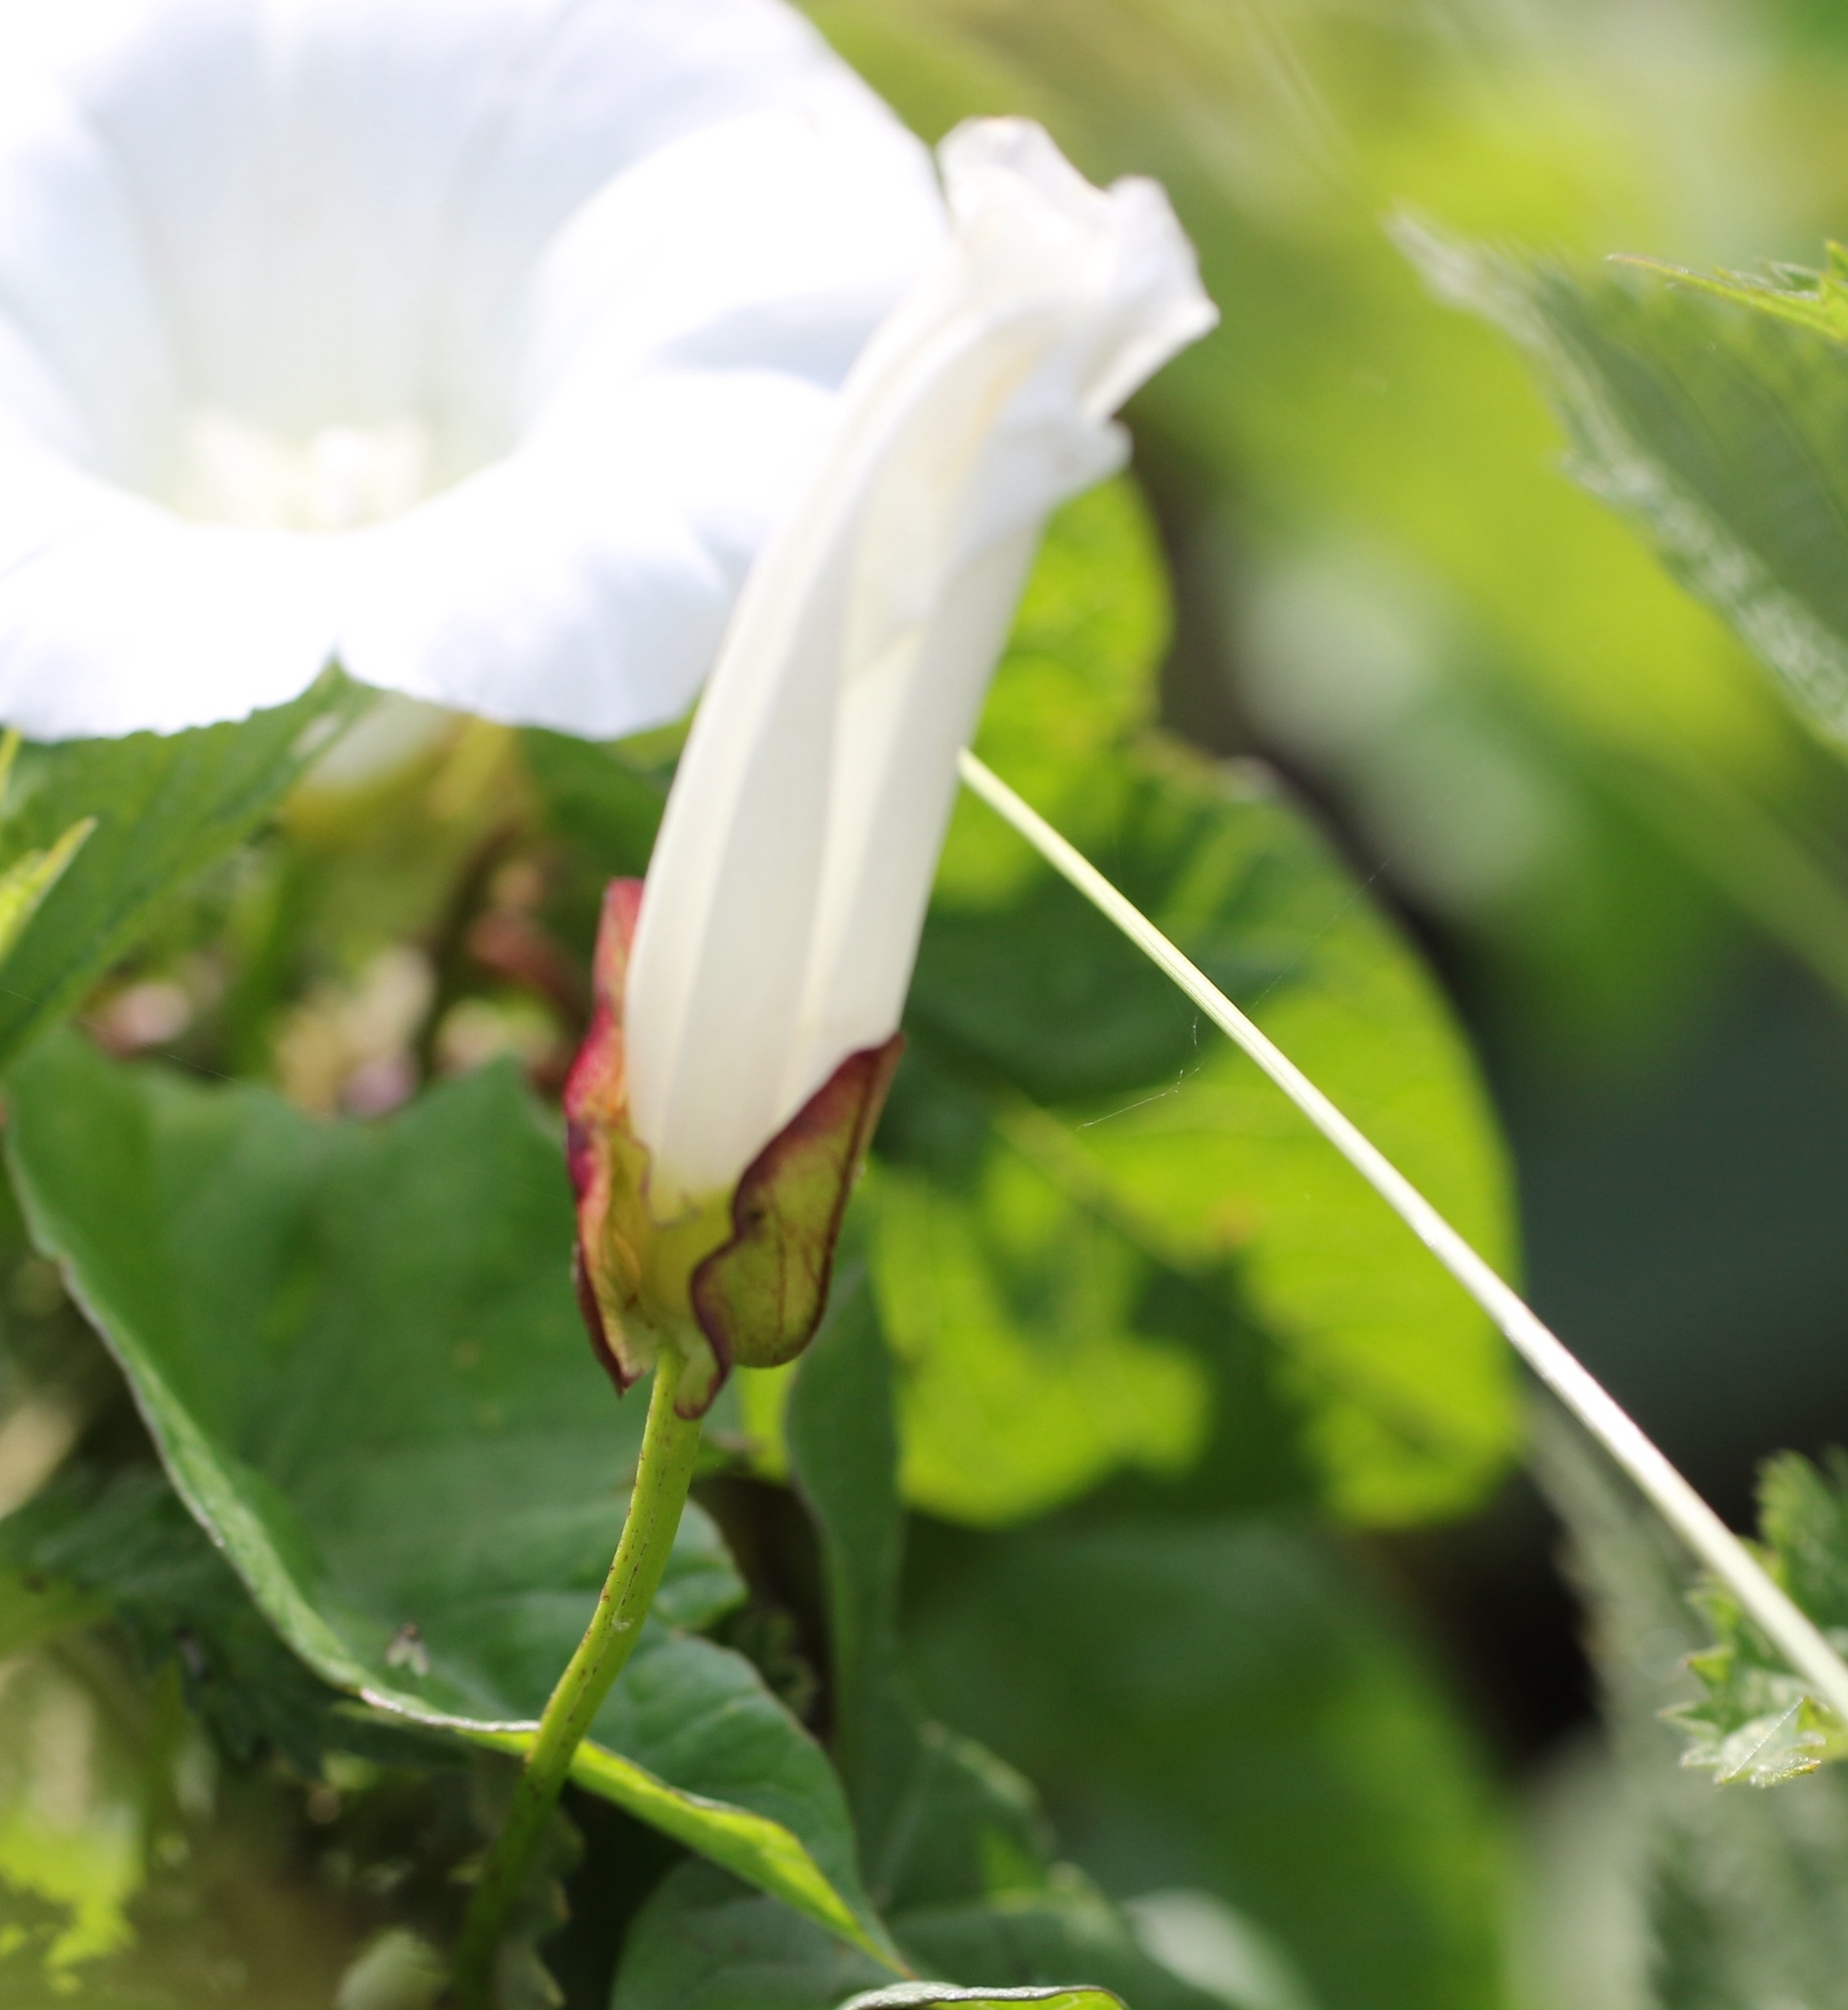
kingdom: Plantae
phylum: Tracheophyta
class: Magnoliopsida
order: Solanales
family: Convolvulaceae
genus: Calystegia
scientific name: Calystegia sepium
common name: Hedge bindweed
